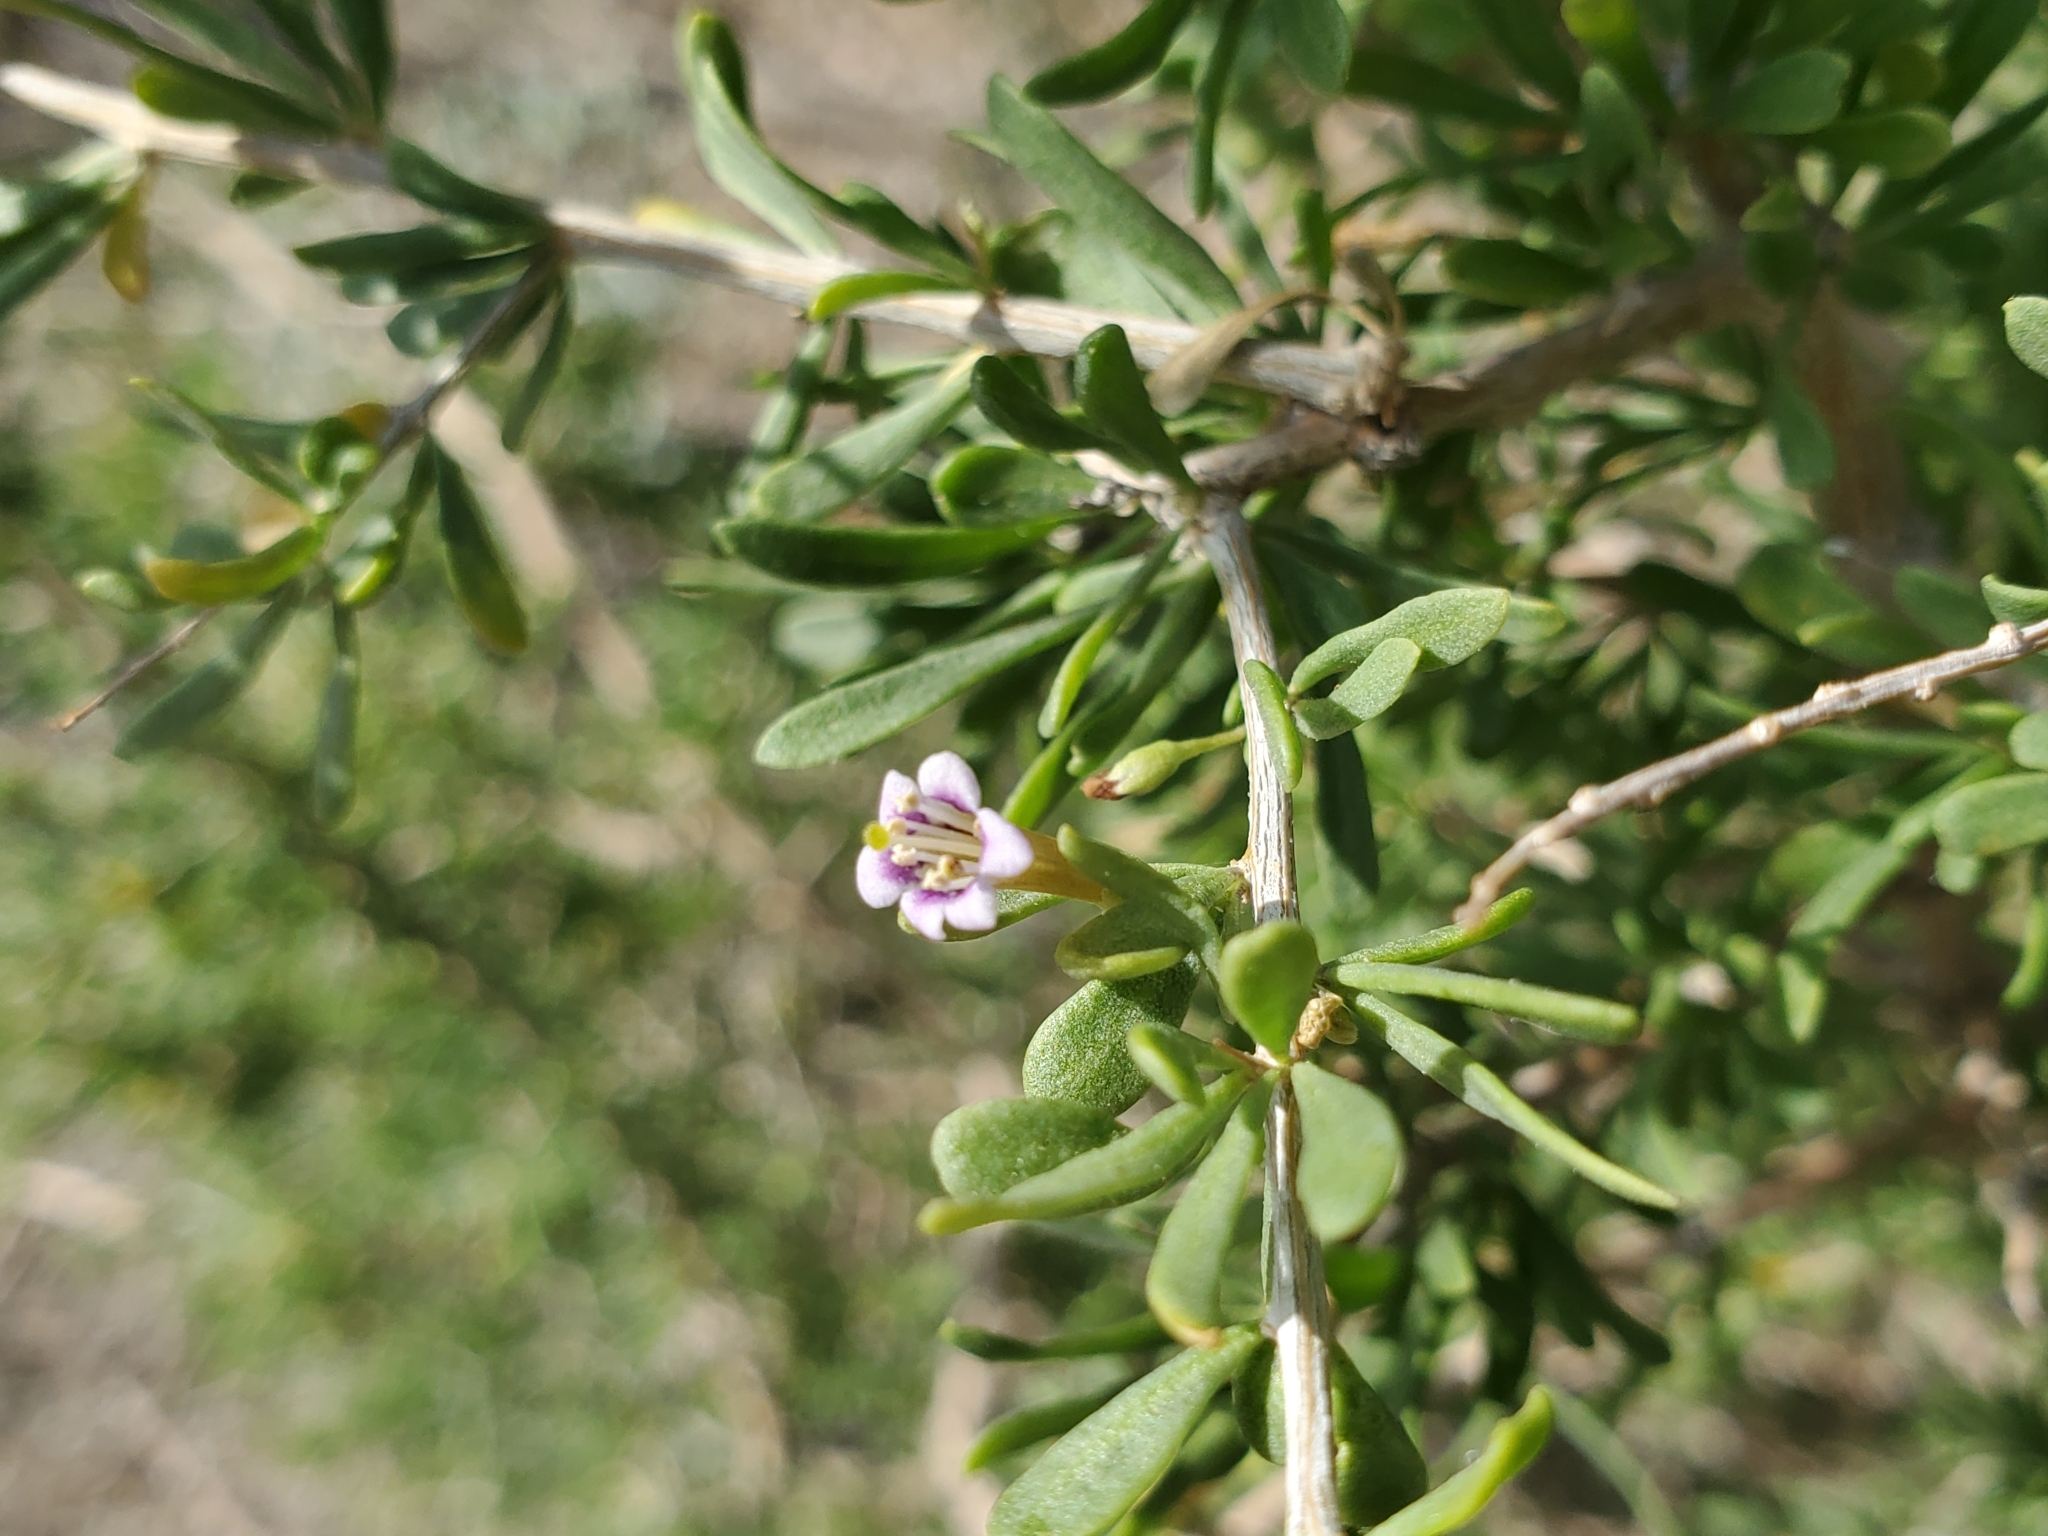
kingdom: Plantae
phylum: Tracheophyta
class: Magnoliopsida
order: Solanales
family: Solanaceae
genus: Lycium
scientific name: Lycium andersonii
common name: Water-jacket
